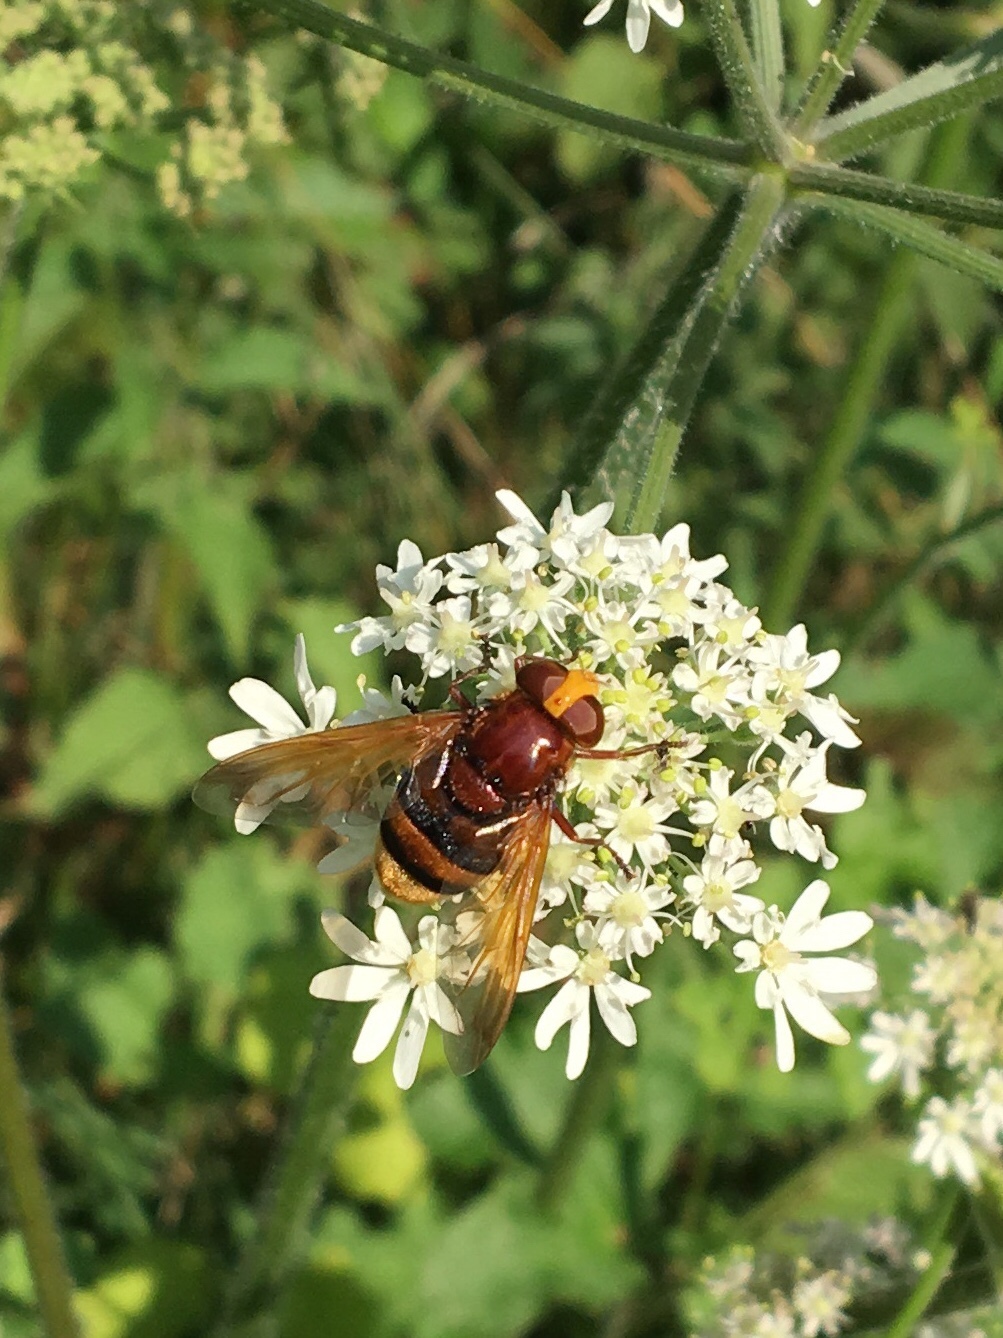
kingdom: Animalia
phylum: Arthropoda
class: Insecta
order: Diptera
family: Syrphidae
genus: Volucella
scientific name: Volucella zonaria
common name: Hornet hoverfly
